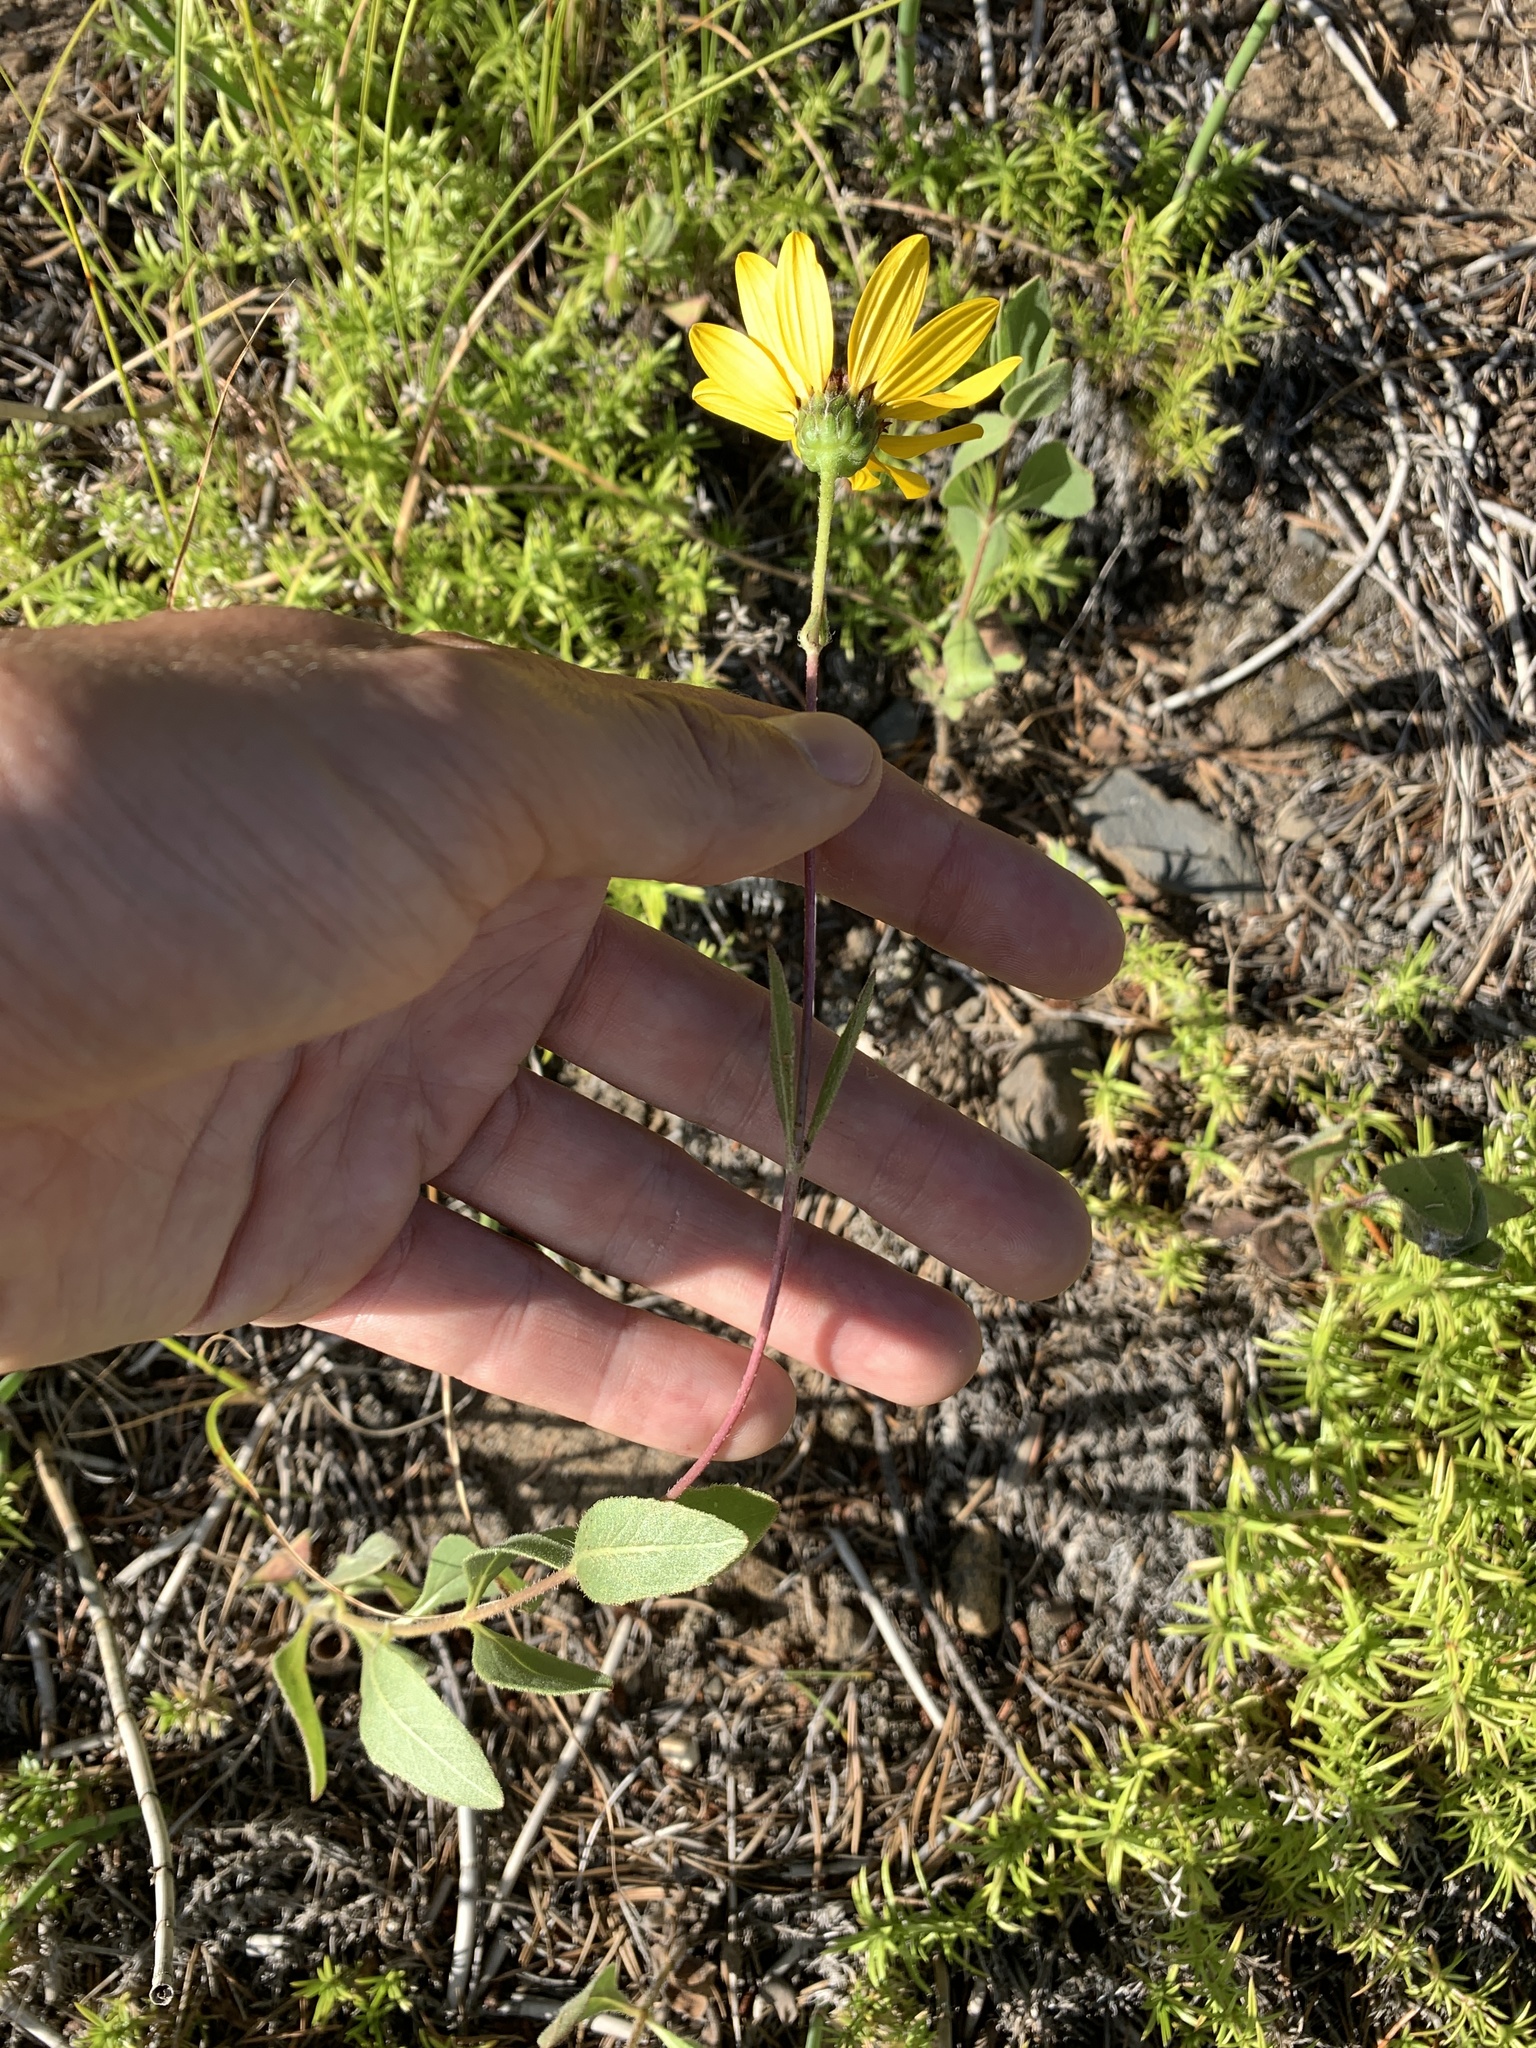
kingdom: Plantae
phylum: Tracheophyta
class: Magnoliopsida
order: Asterales
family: Asteraceae
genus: Helianthus
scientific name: Helianthus pauciflorus
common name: Stiff sunflower
